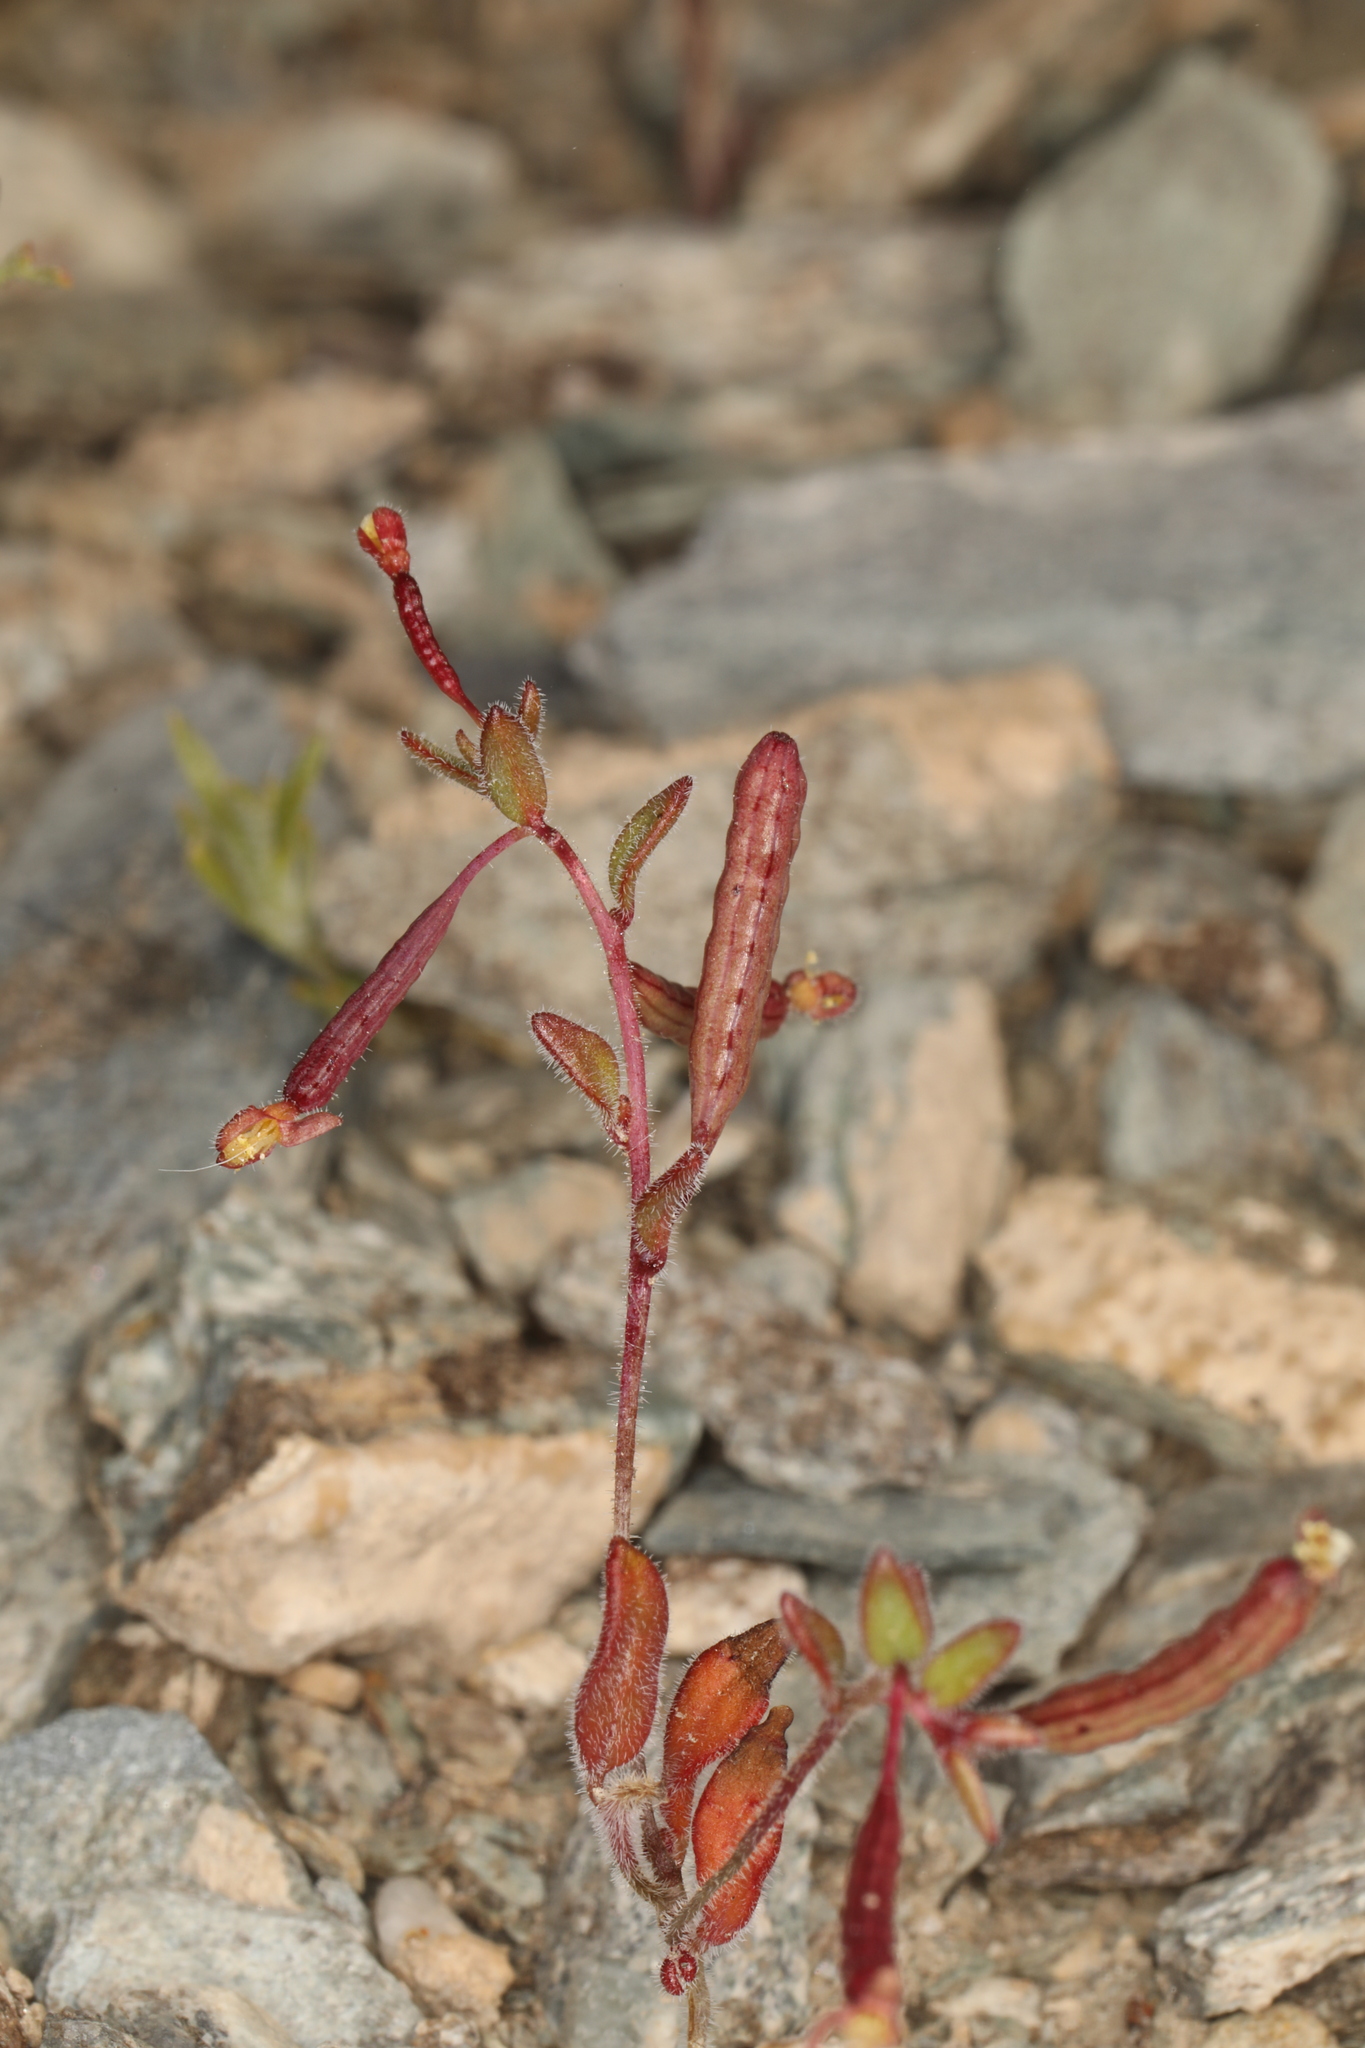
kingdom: Plantae
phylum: Tracheophyta
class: Magnoliopsida
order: Myrtales
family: Onagraceae
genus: Chylismiella
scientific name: Chylismiella pterosperma
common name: Wingfruit suncup
